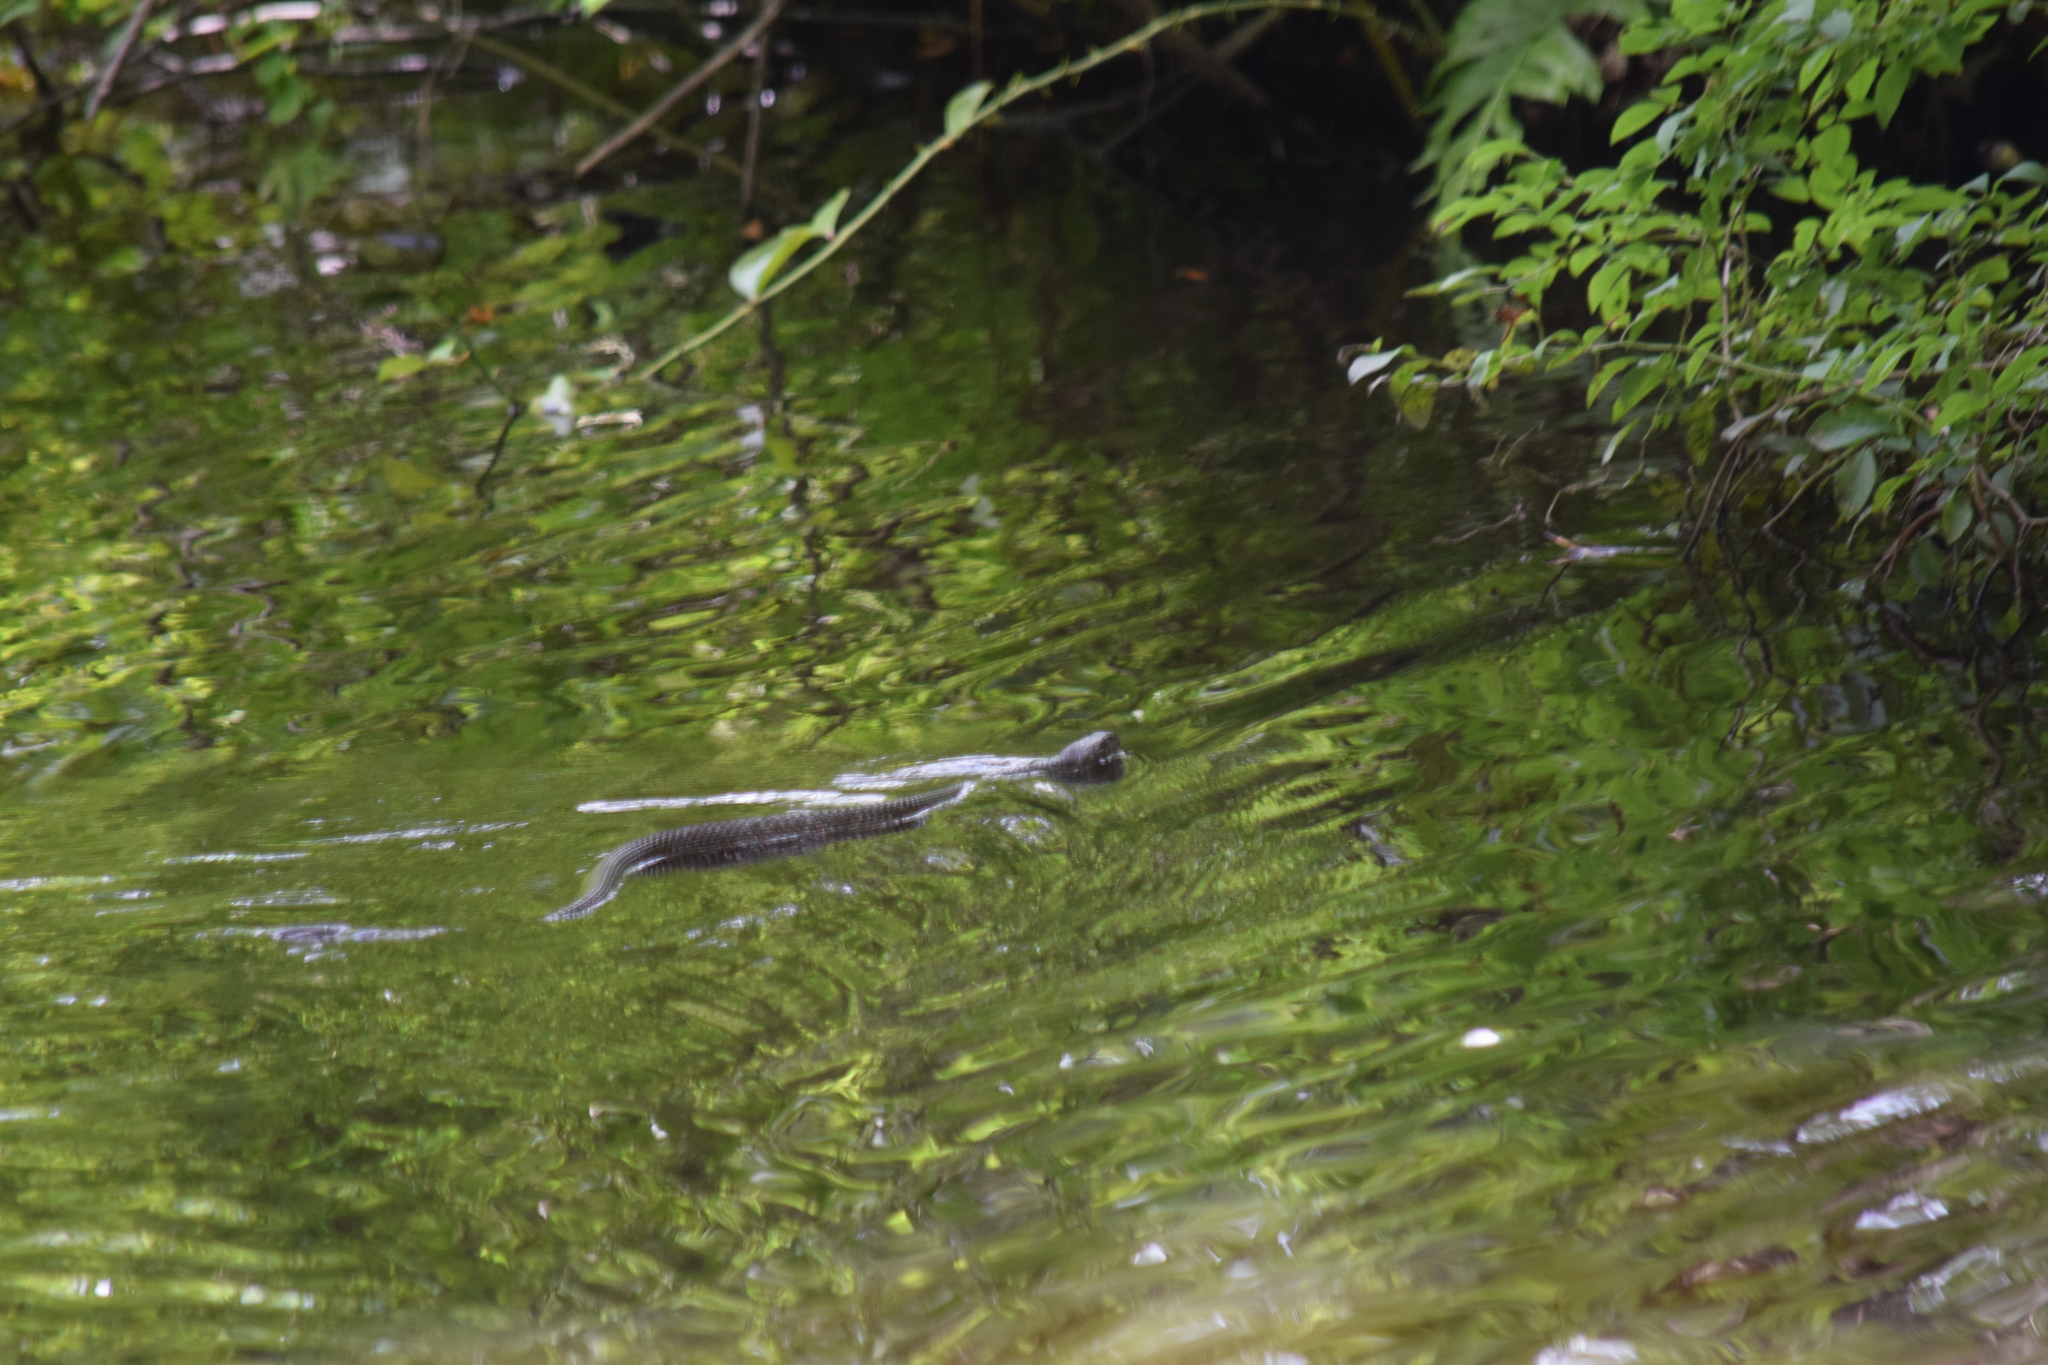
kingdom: Animalia
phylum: Chordata
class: Squamata
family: Colubridae
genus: Nerodia
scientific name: Nerodia sipedon
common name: Northern water snake
